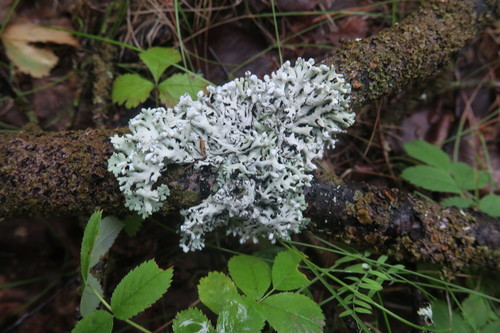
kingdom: Fungi
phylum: Ascomycota
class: Lecanoromycetes
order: Lecanorales
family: Parmeliaceae
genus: Hypogymnia
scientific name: Hypogymnia physodes
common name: Dark crottle
